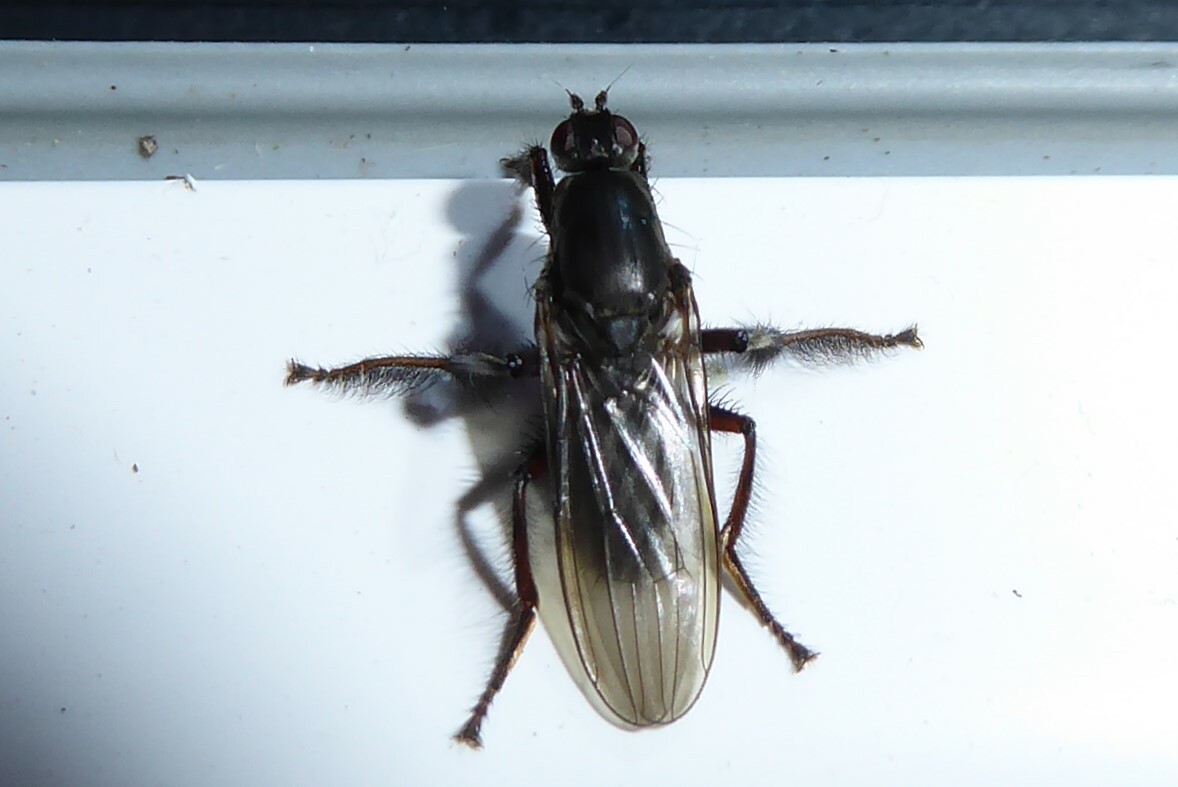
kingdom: Animalia
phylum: Arthropoda
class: Insecta
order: Diptera
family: Coelopidae
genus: Chaetocoelopa
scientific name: Chaetocoelopa littoralis
